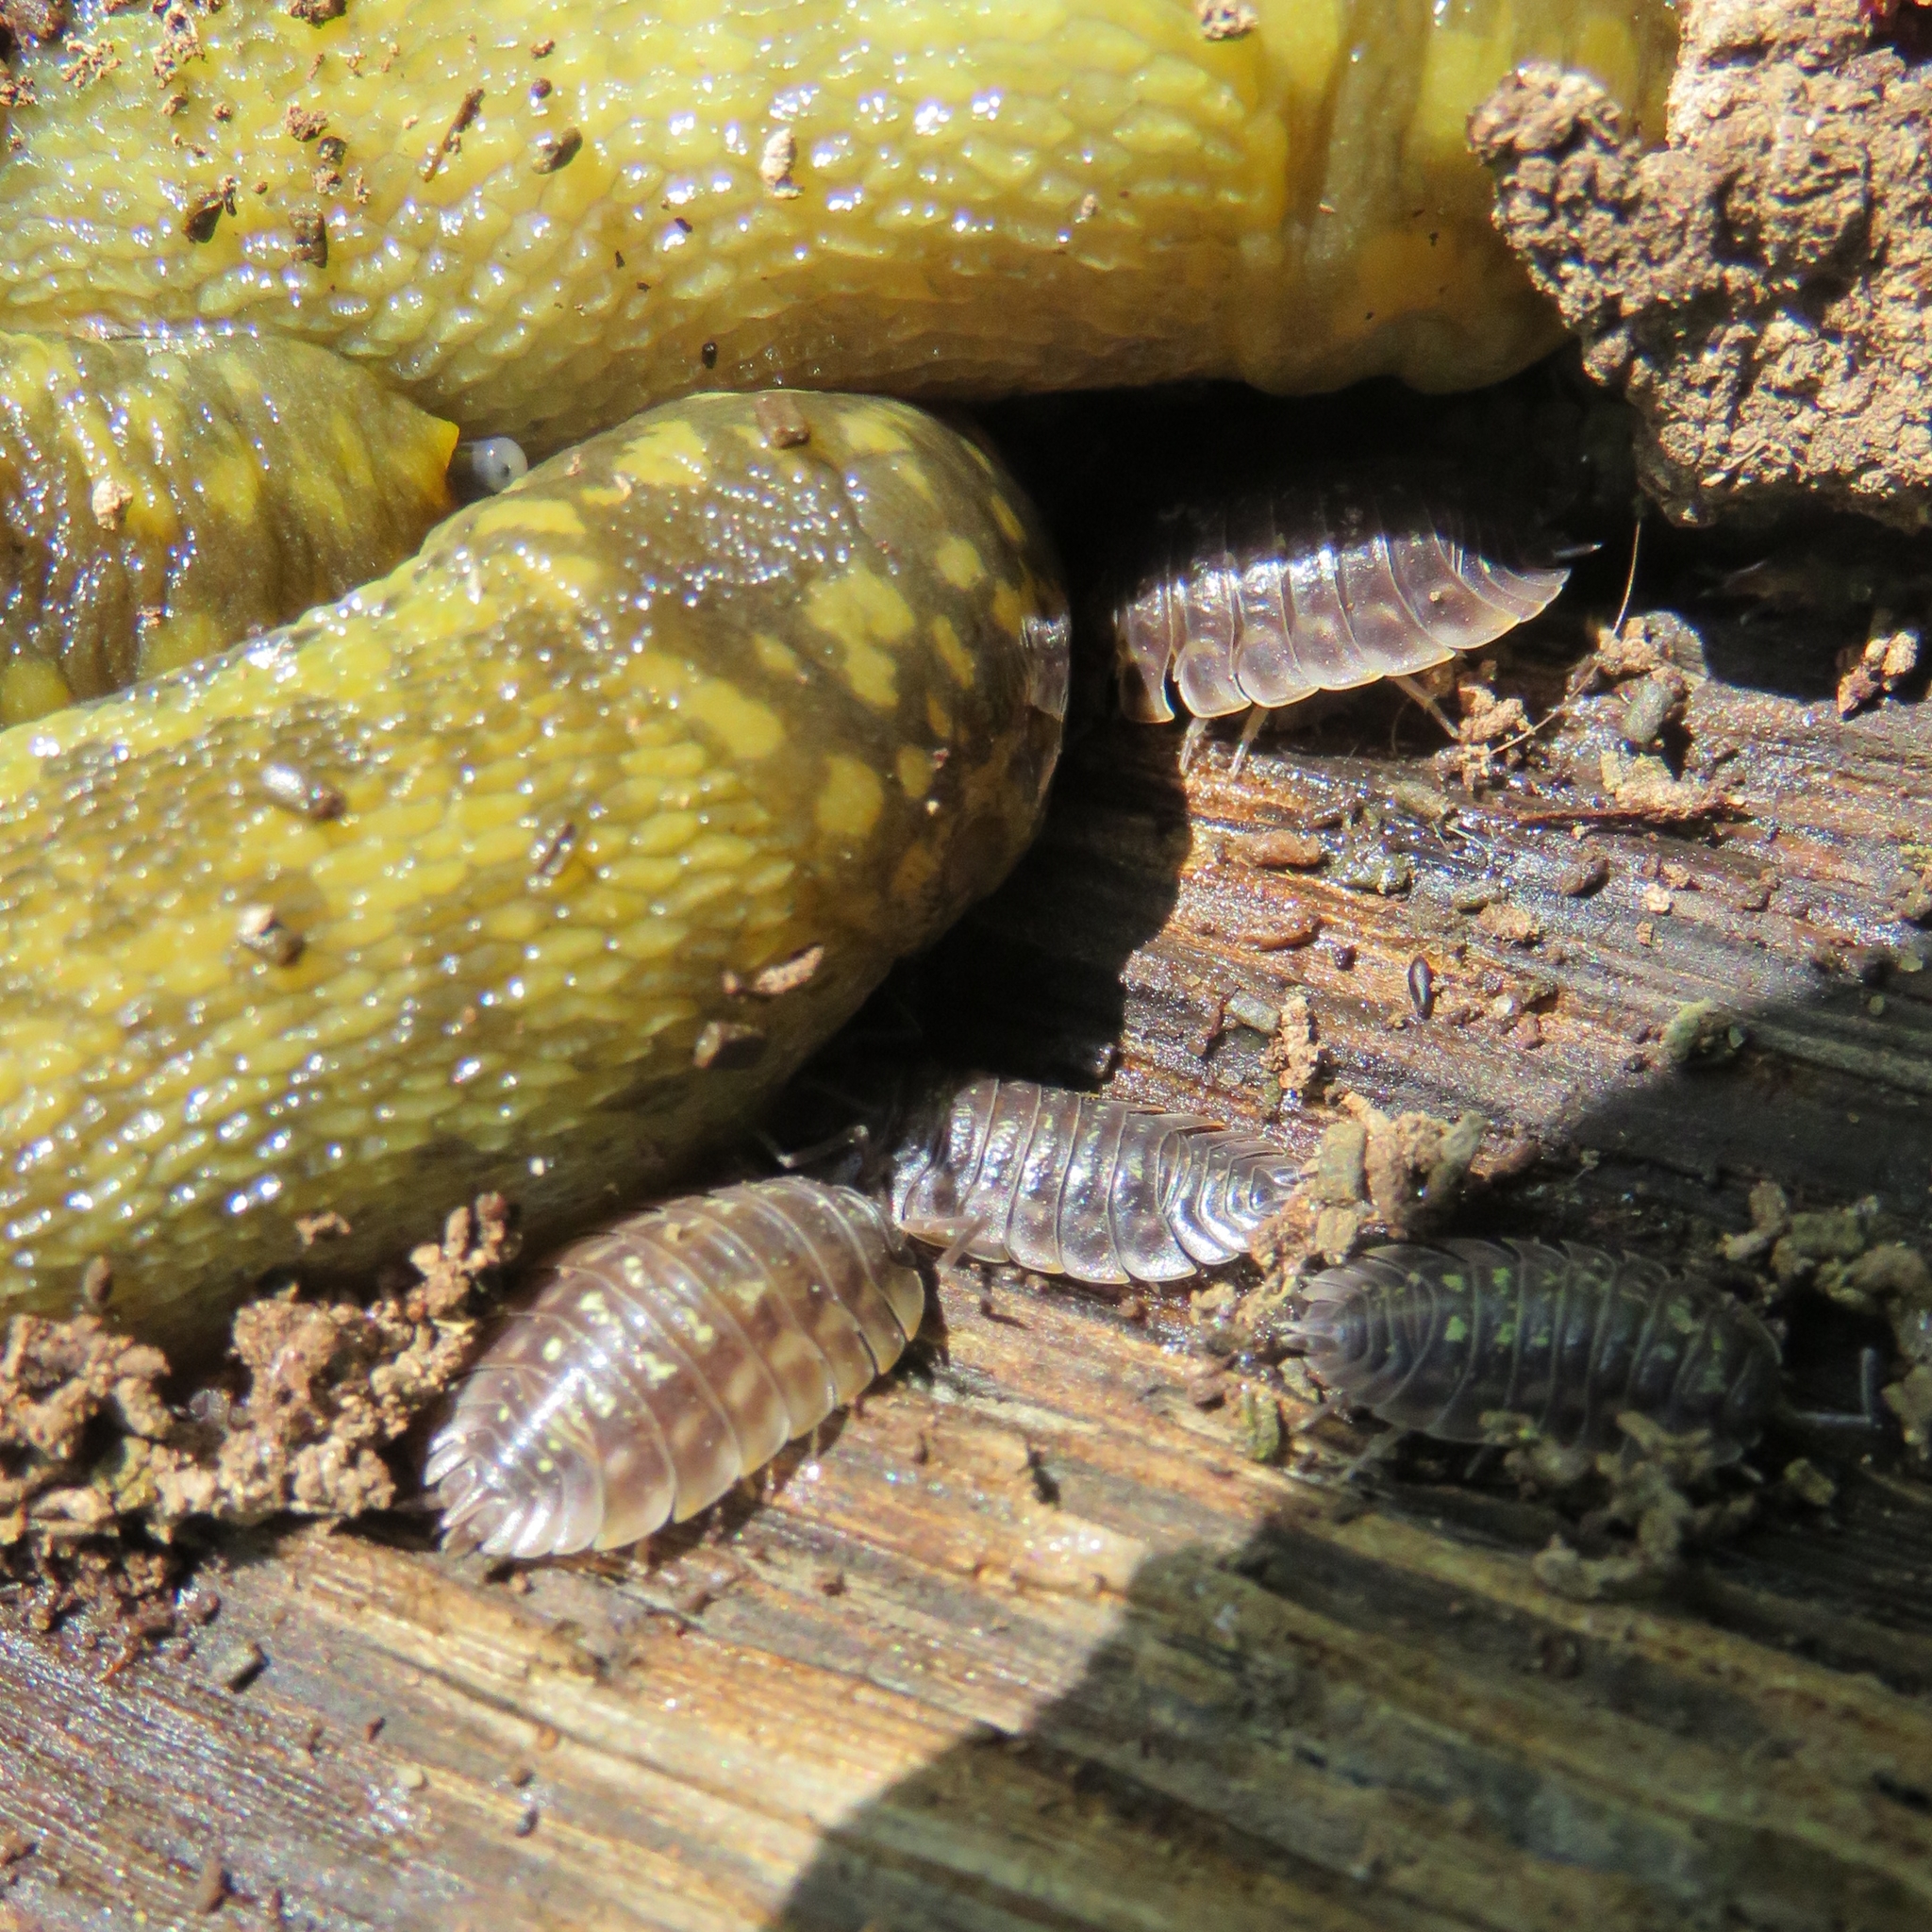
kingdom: Animalia
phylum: Arthropoda
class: Malacostraca
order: Isopoda
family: Oniscidae
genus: Oniscus
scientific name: Oniscus asellus
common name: Common shiny woodlouse
